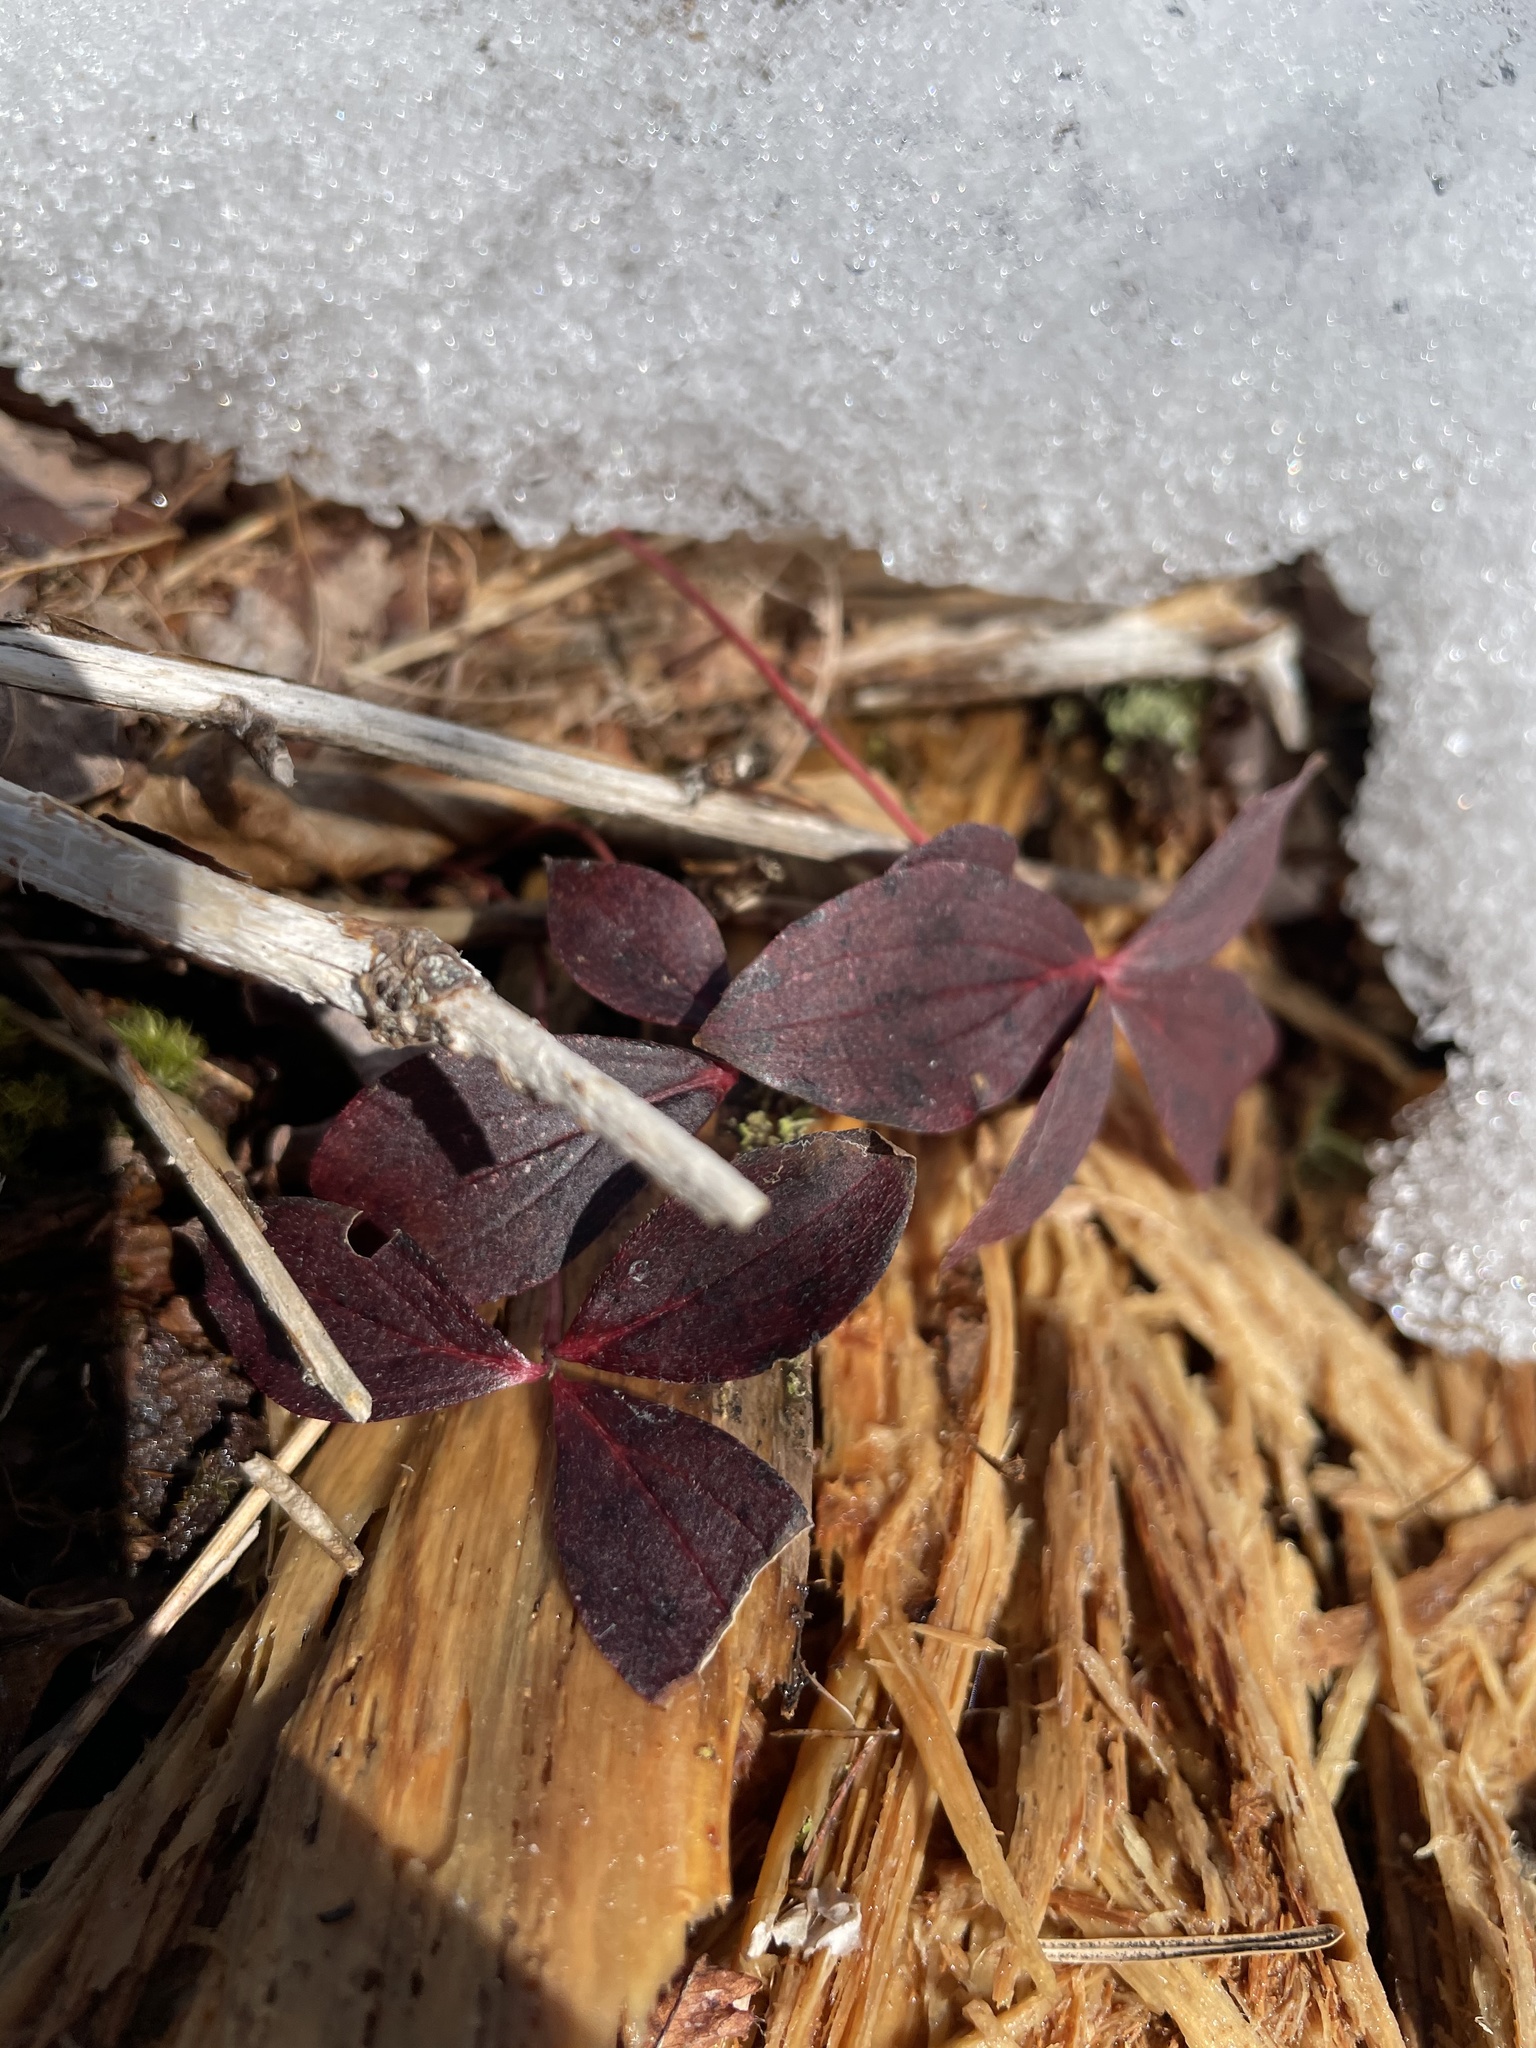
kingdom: Plantae
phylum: Tracheophyta
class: Magnoliopsida
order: Cornales
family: Cornaceae
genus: Cornus
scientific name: Cornus canadensis
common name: Creeping dogwood
